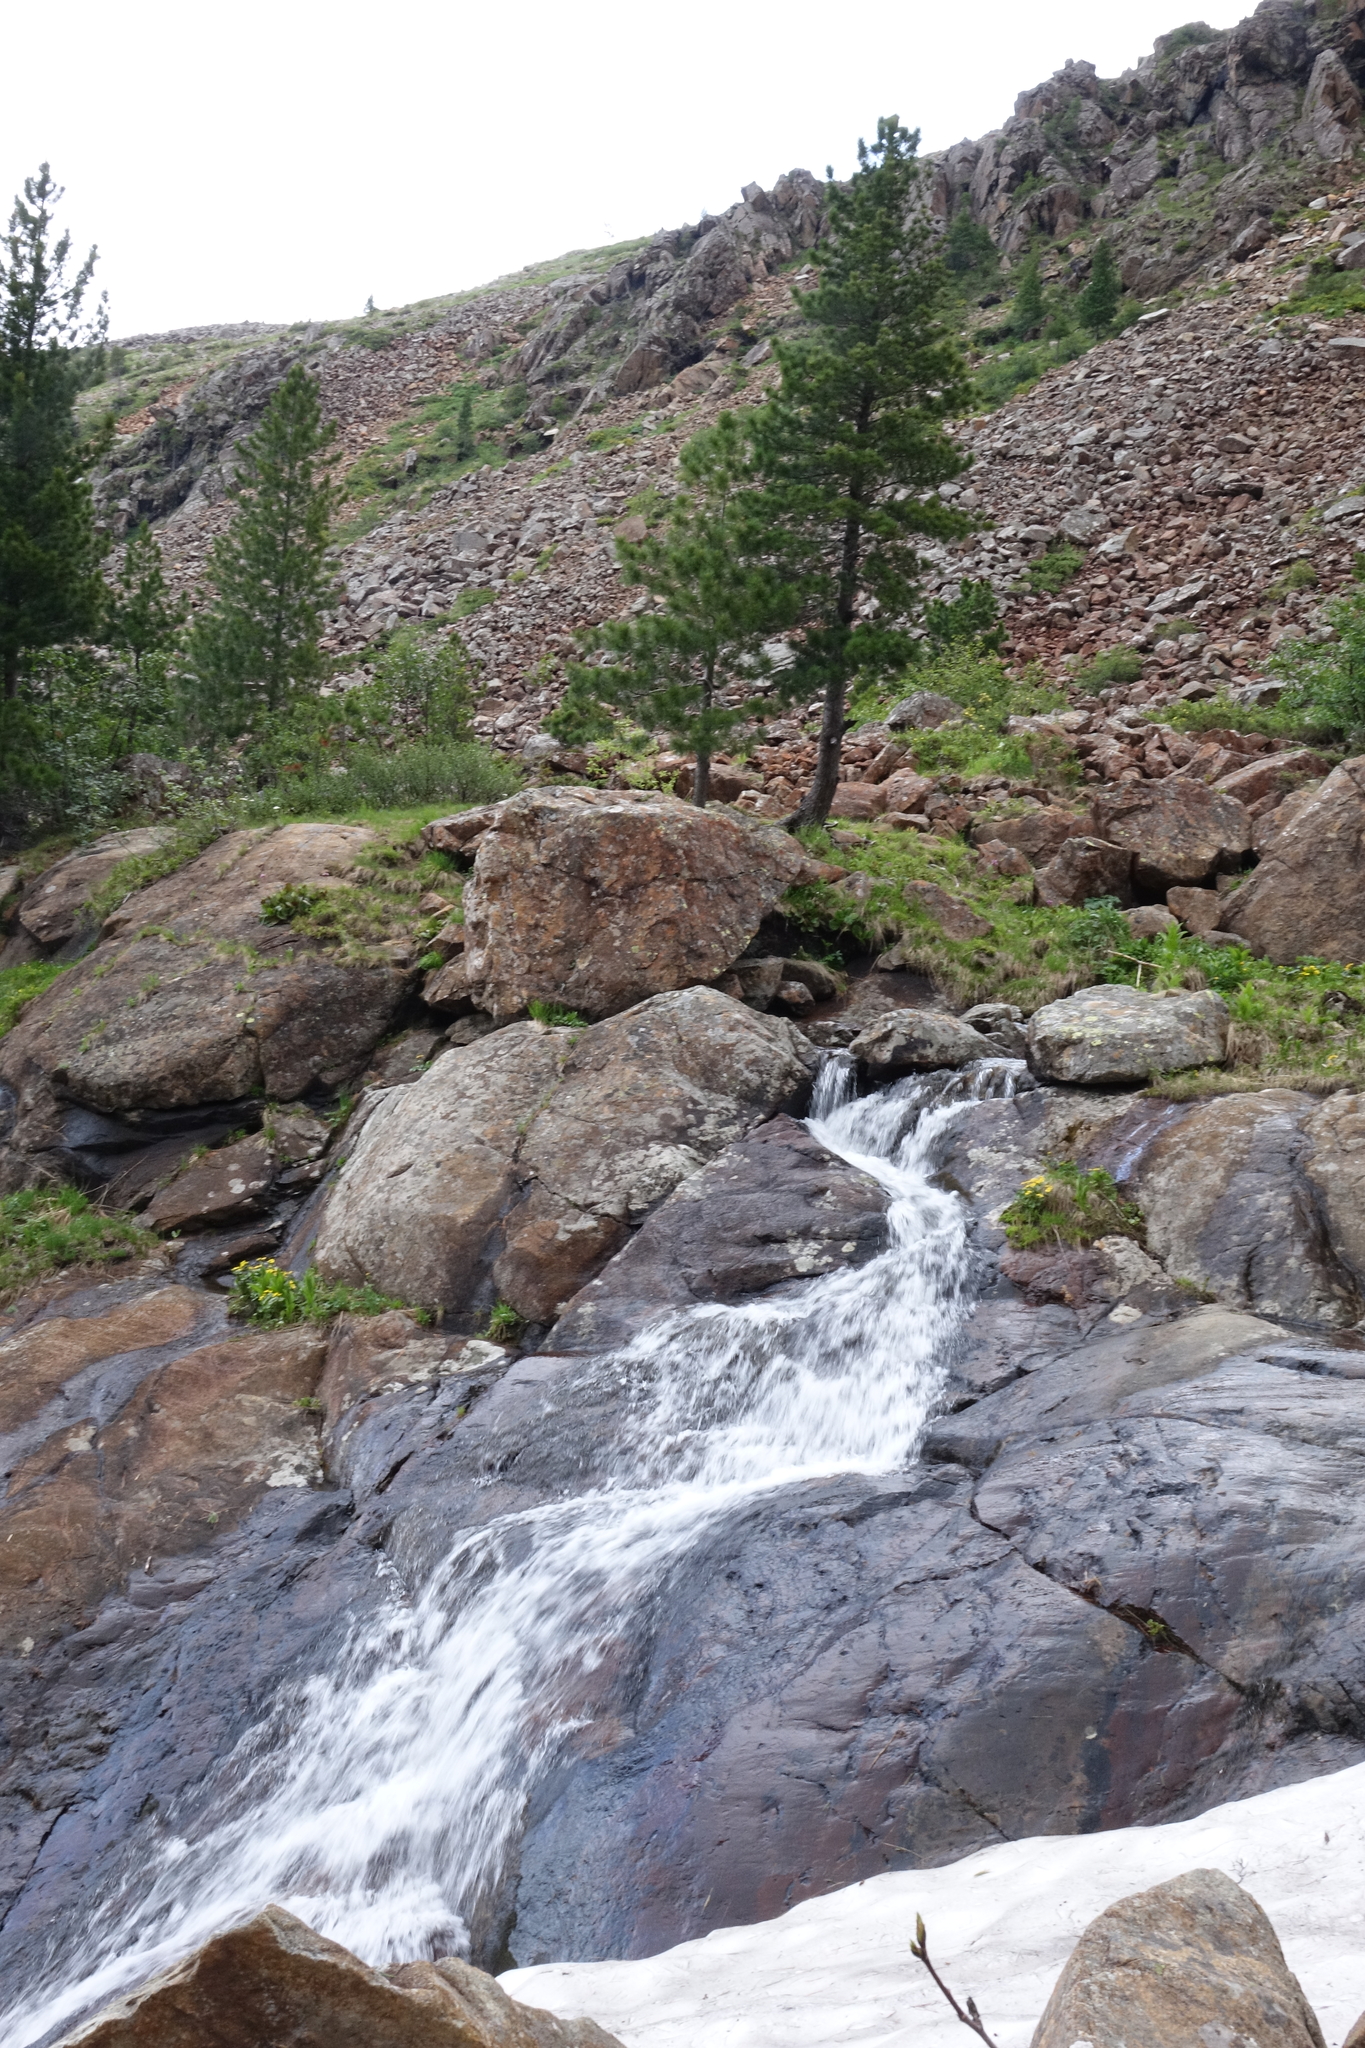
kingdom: Plantae
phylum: Tracheophyta
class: Pinopsida
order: Pinales
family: Pinaceae
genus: Pinus
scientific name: Pinus sibirica
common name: Siberian pine
